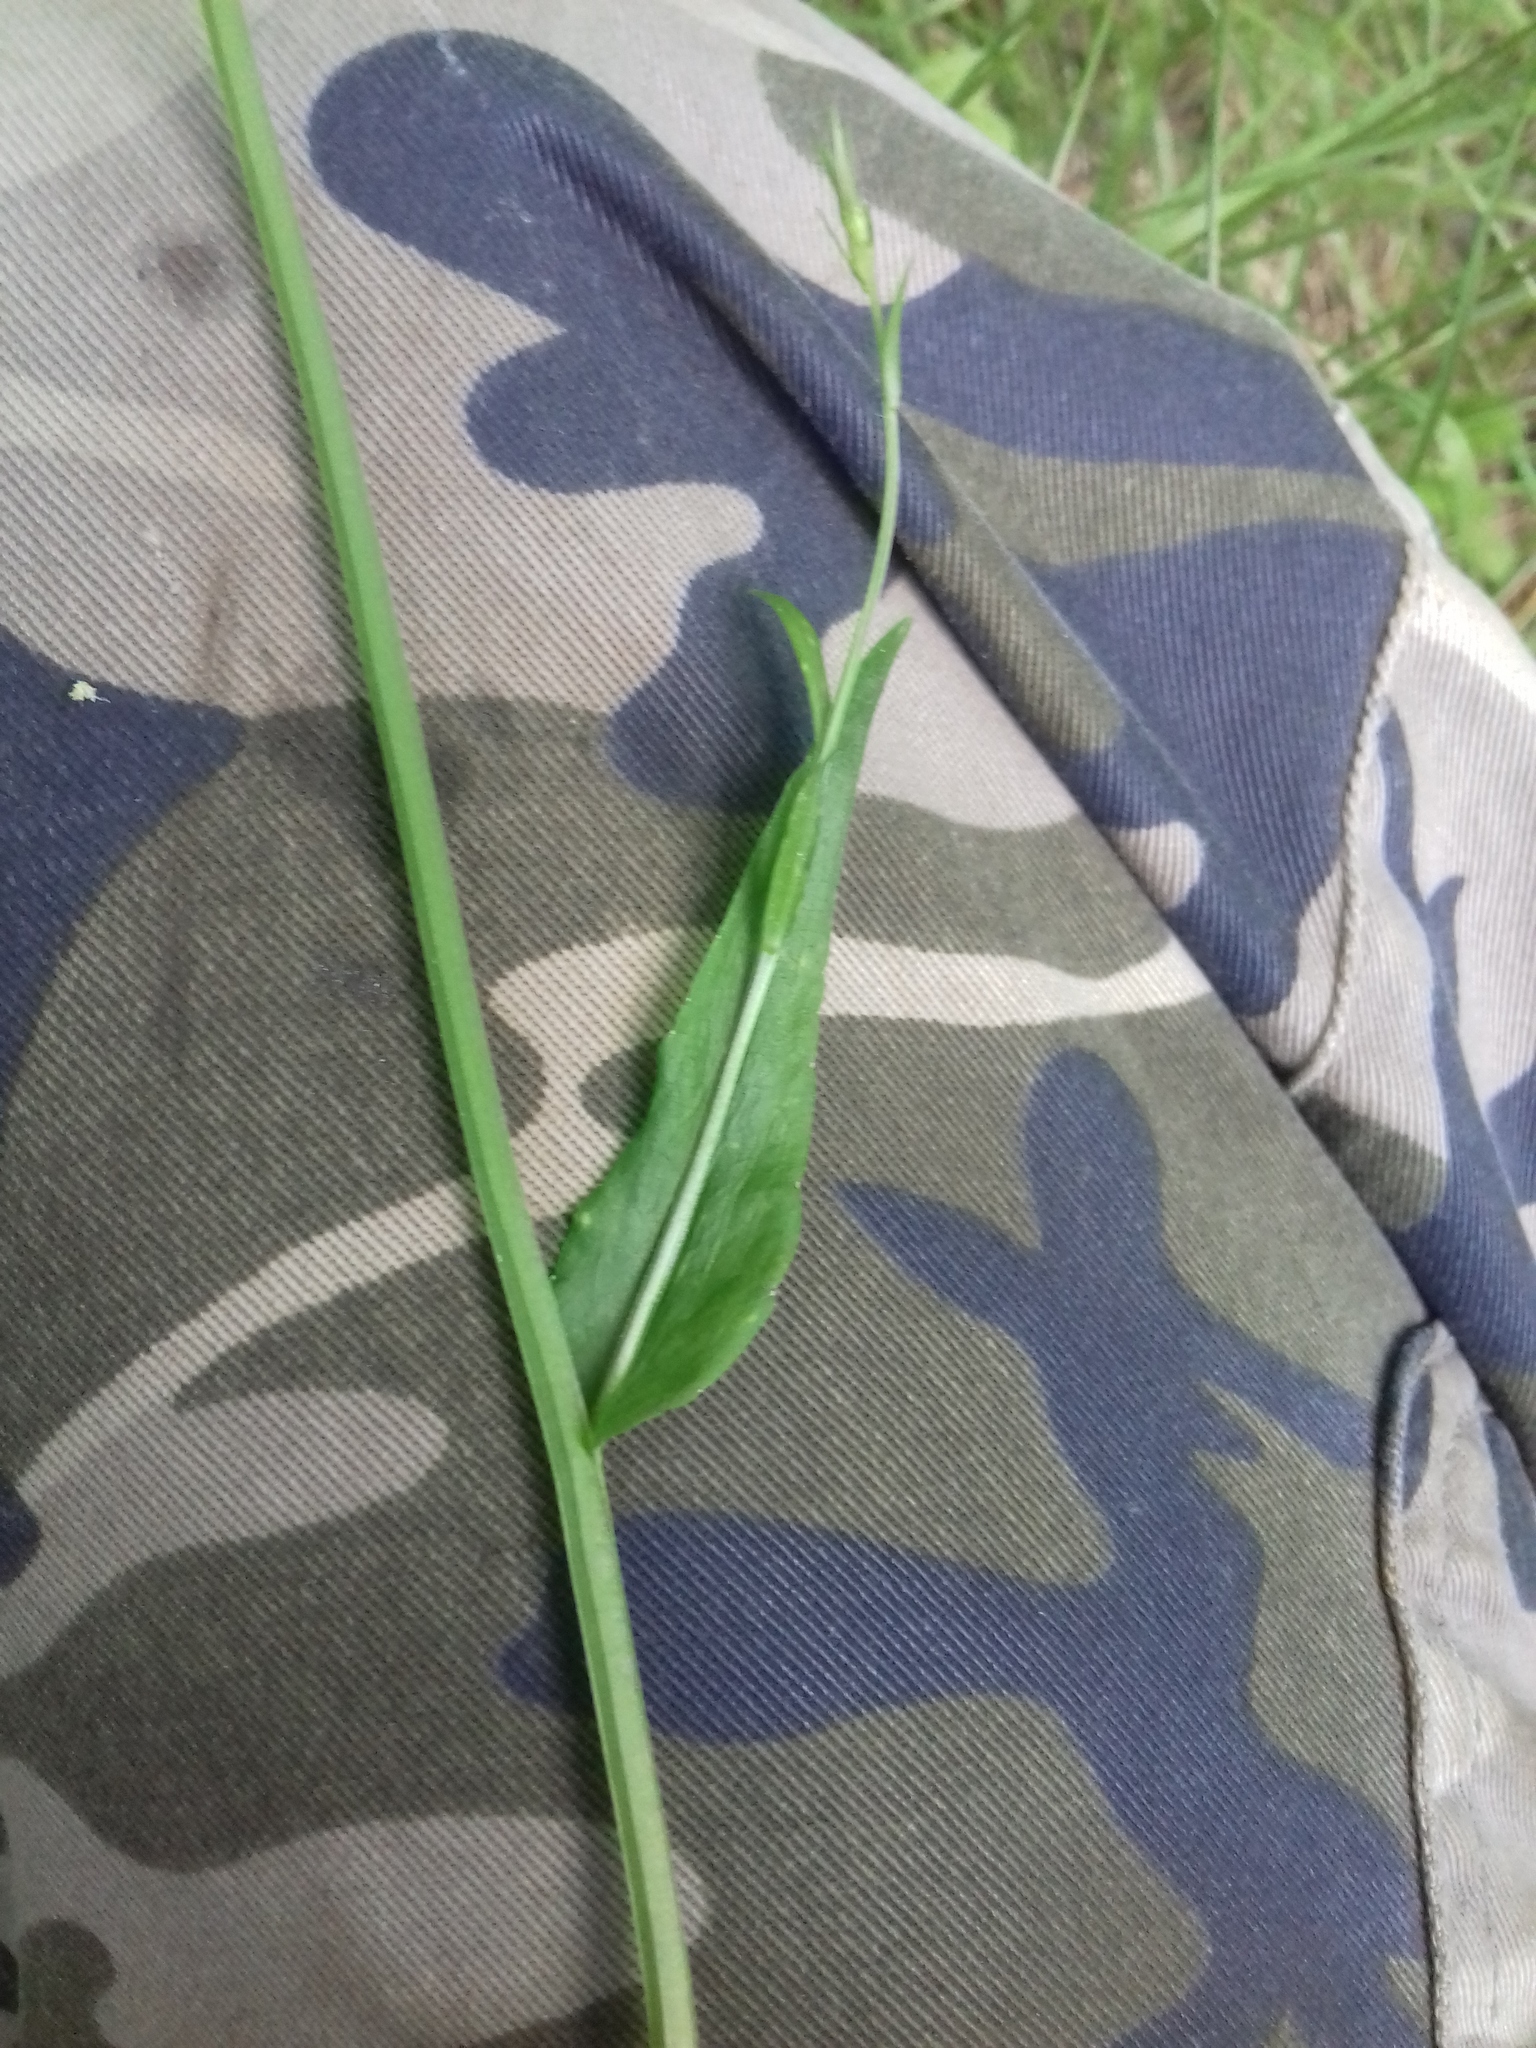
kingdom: Plantae
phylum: Tracheophyta
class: Magnoliopsida
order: Asterales
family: Campanulaceae
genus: Campanula
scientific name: Campanula patula
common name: Spreading bellflower
